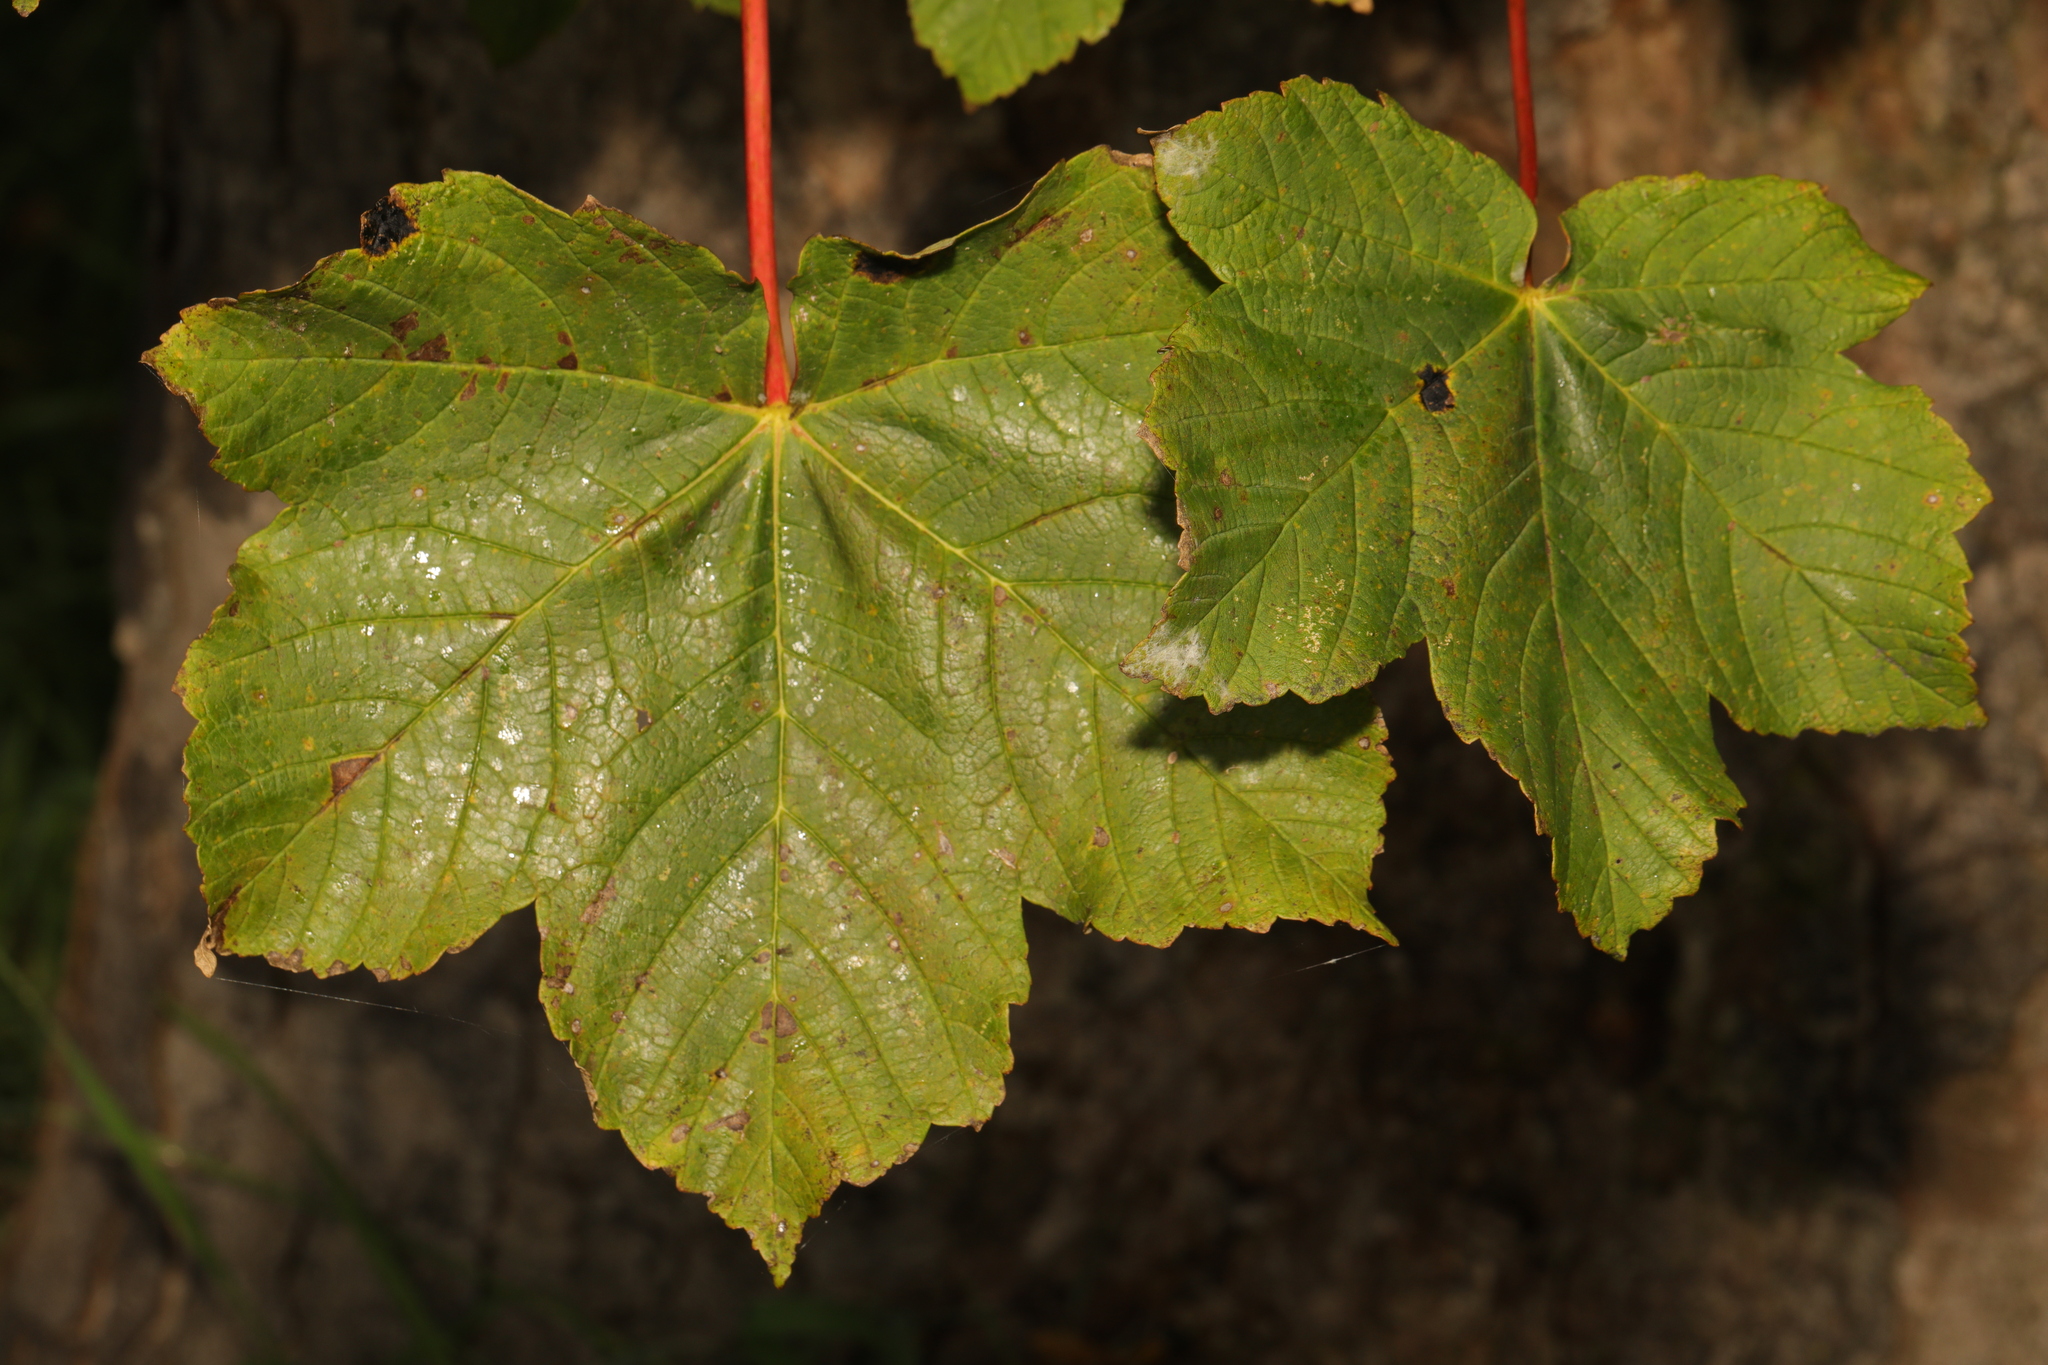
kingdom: Plantae
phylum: Tracheophyta
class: Magnoliopsida
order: Sapindales
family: Sapindaceae
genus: Acer
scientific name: Acer pseudoplatanus
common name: Sycamore
